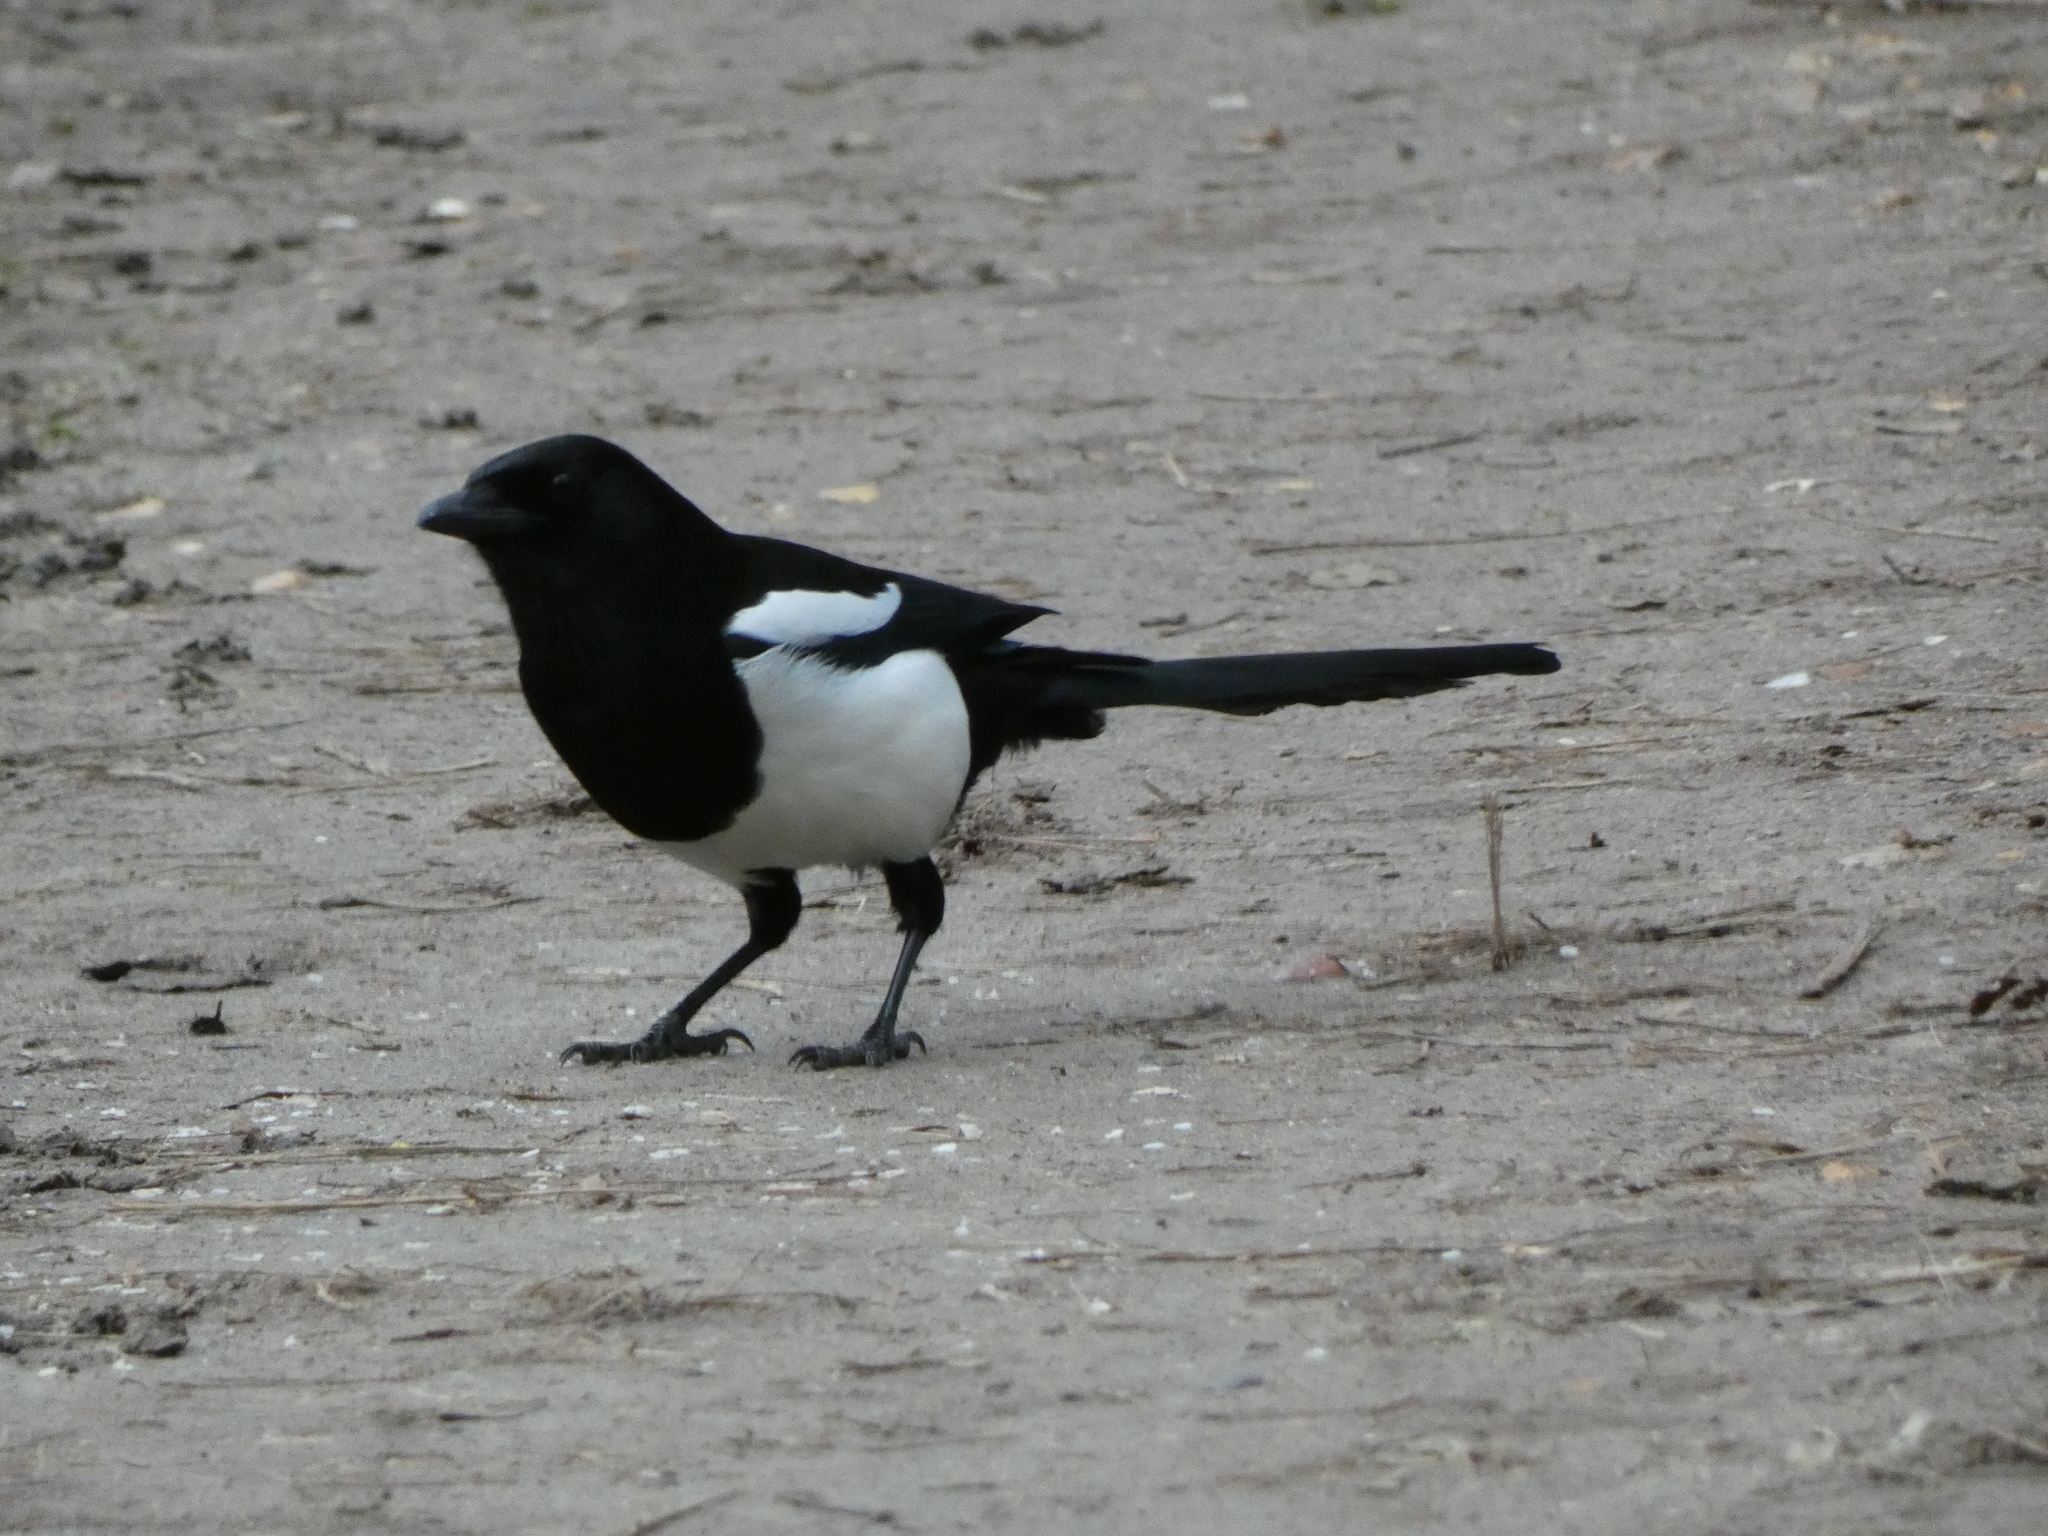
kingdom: Animalia
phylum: Chordata
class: Aves
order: Passeriformes
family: Corvidae
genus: Pica
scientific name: Pica pica
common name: Eurasian magpie
